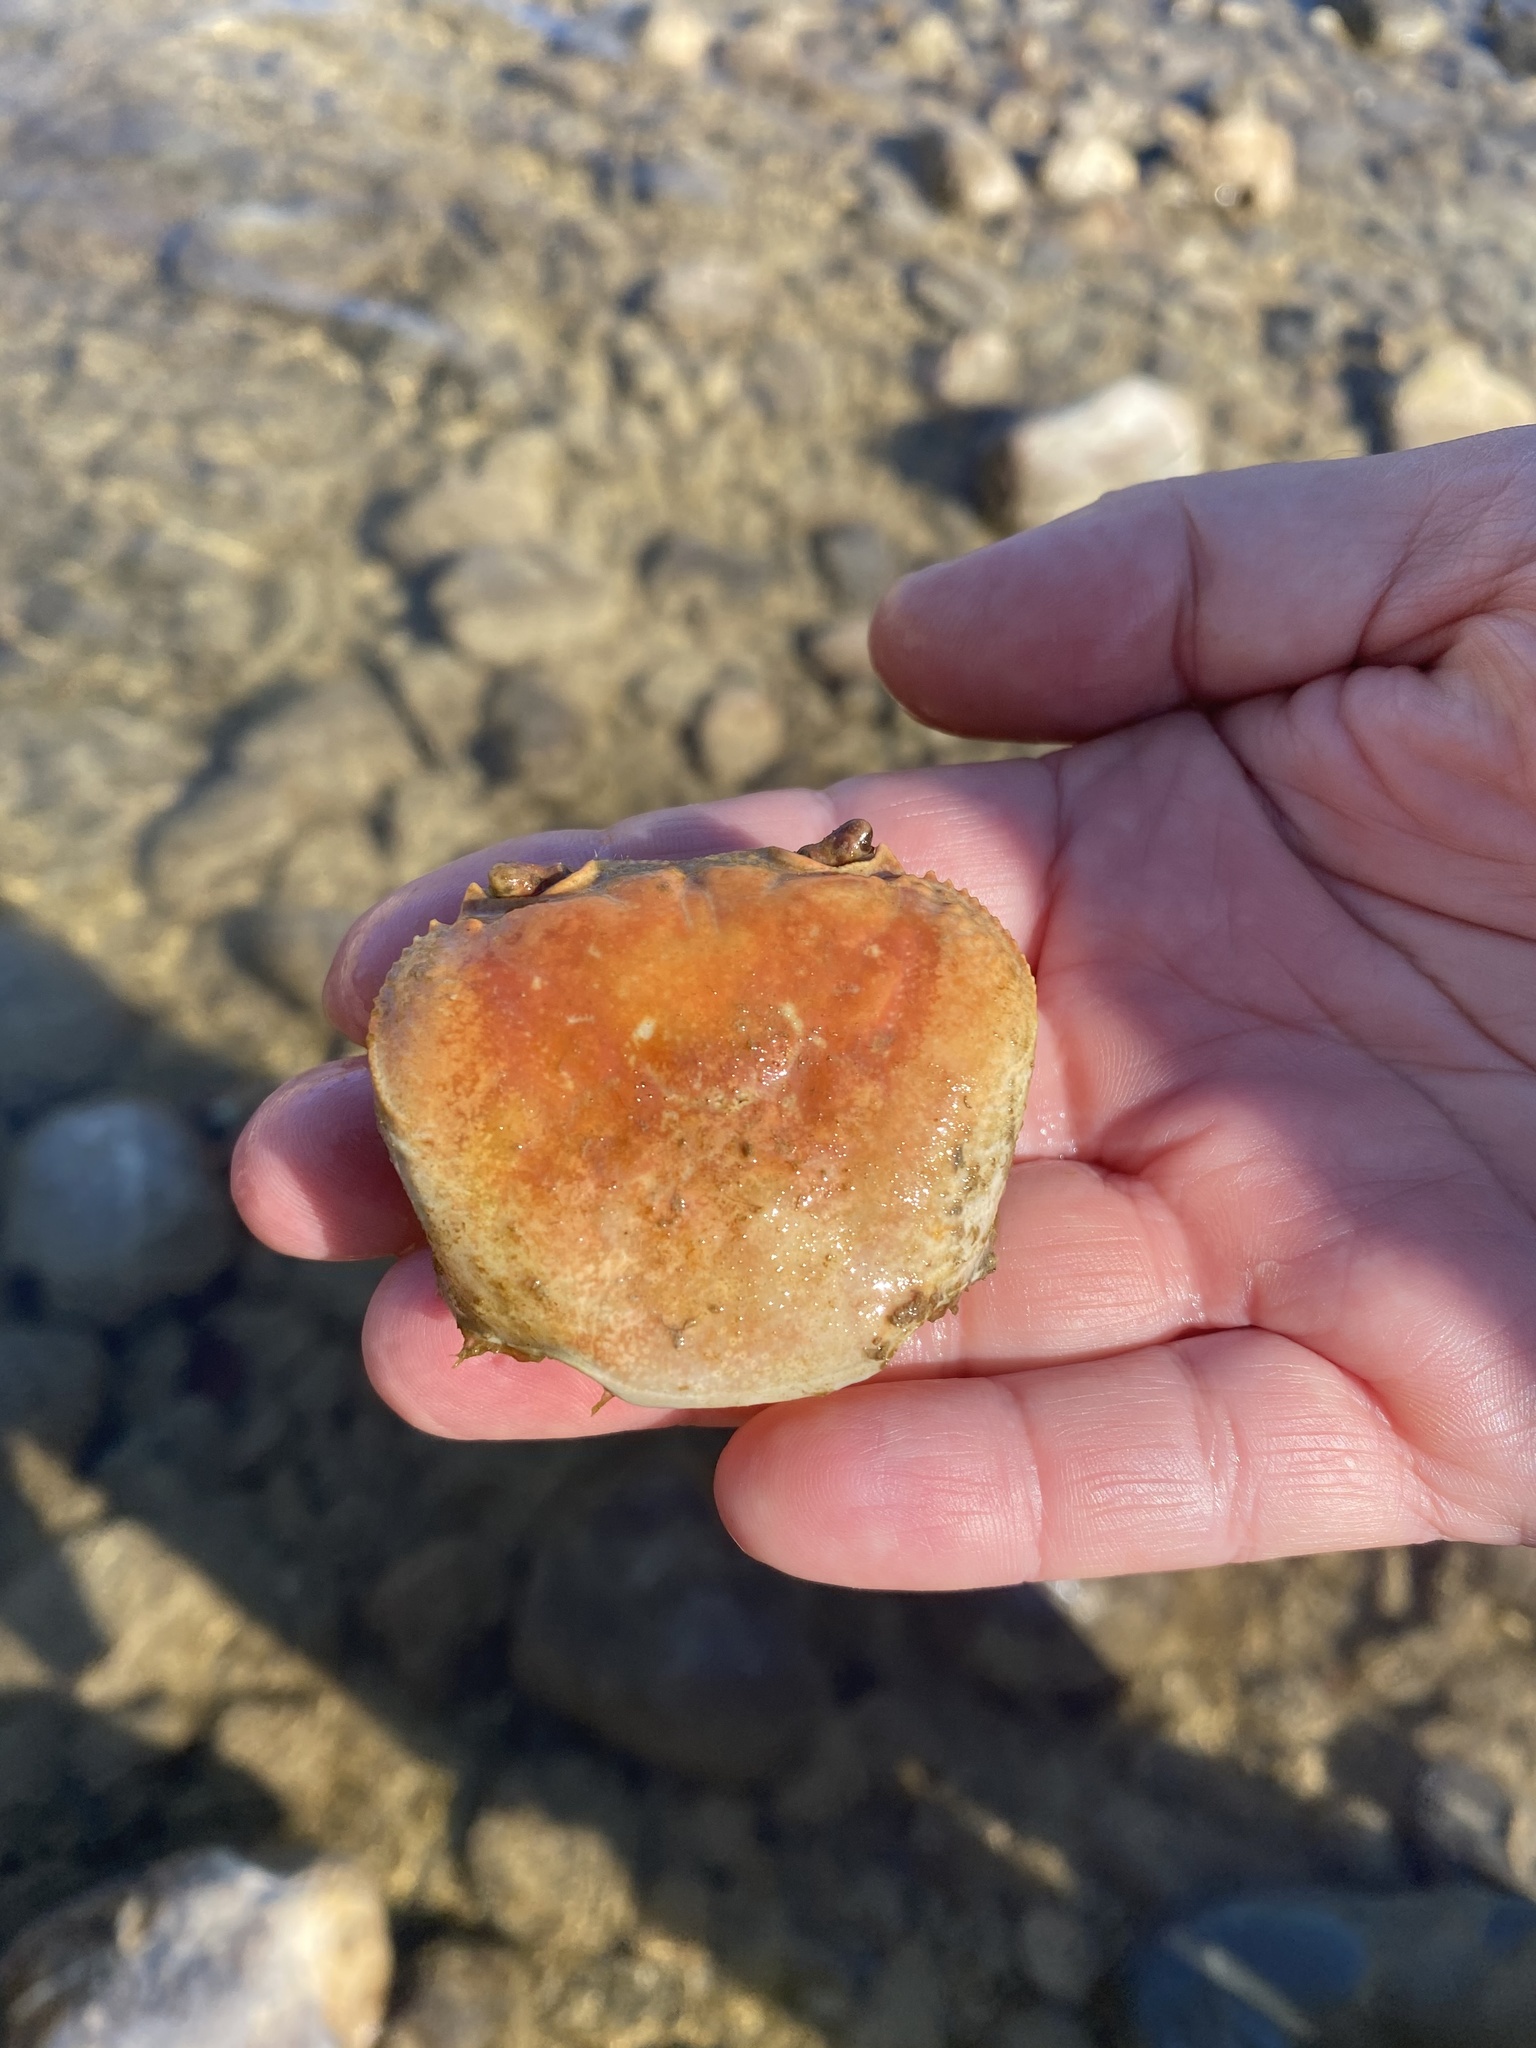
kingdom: Animalia
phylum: Arthropoda
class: Malacostraca
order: Decapoda
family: Potamidae
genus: Potamon
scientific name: Potamon fluviatile
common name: Italian freshwater crab
